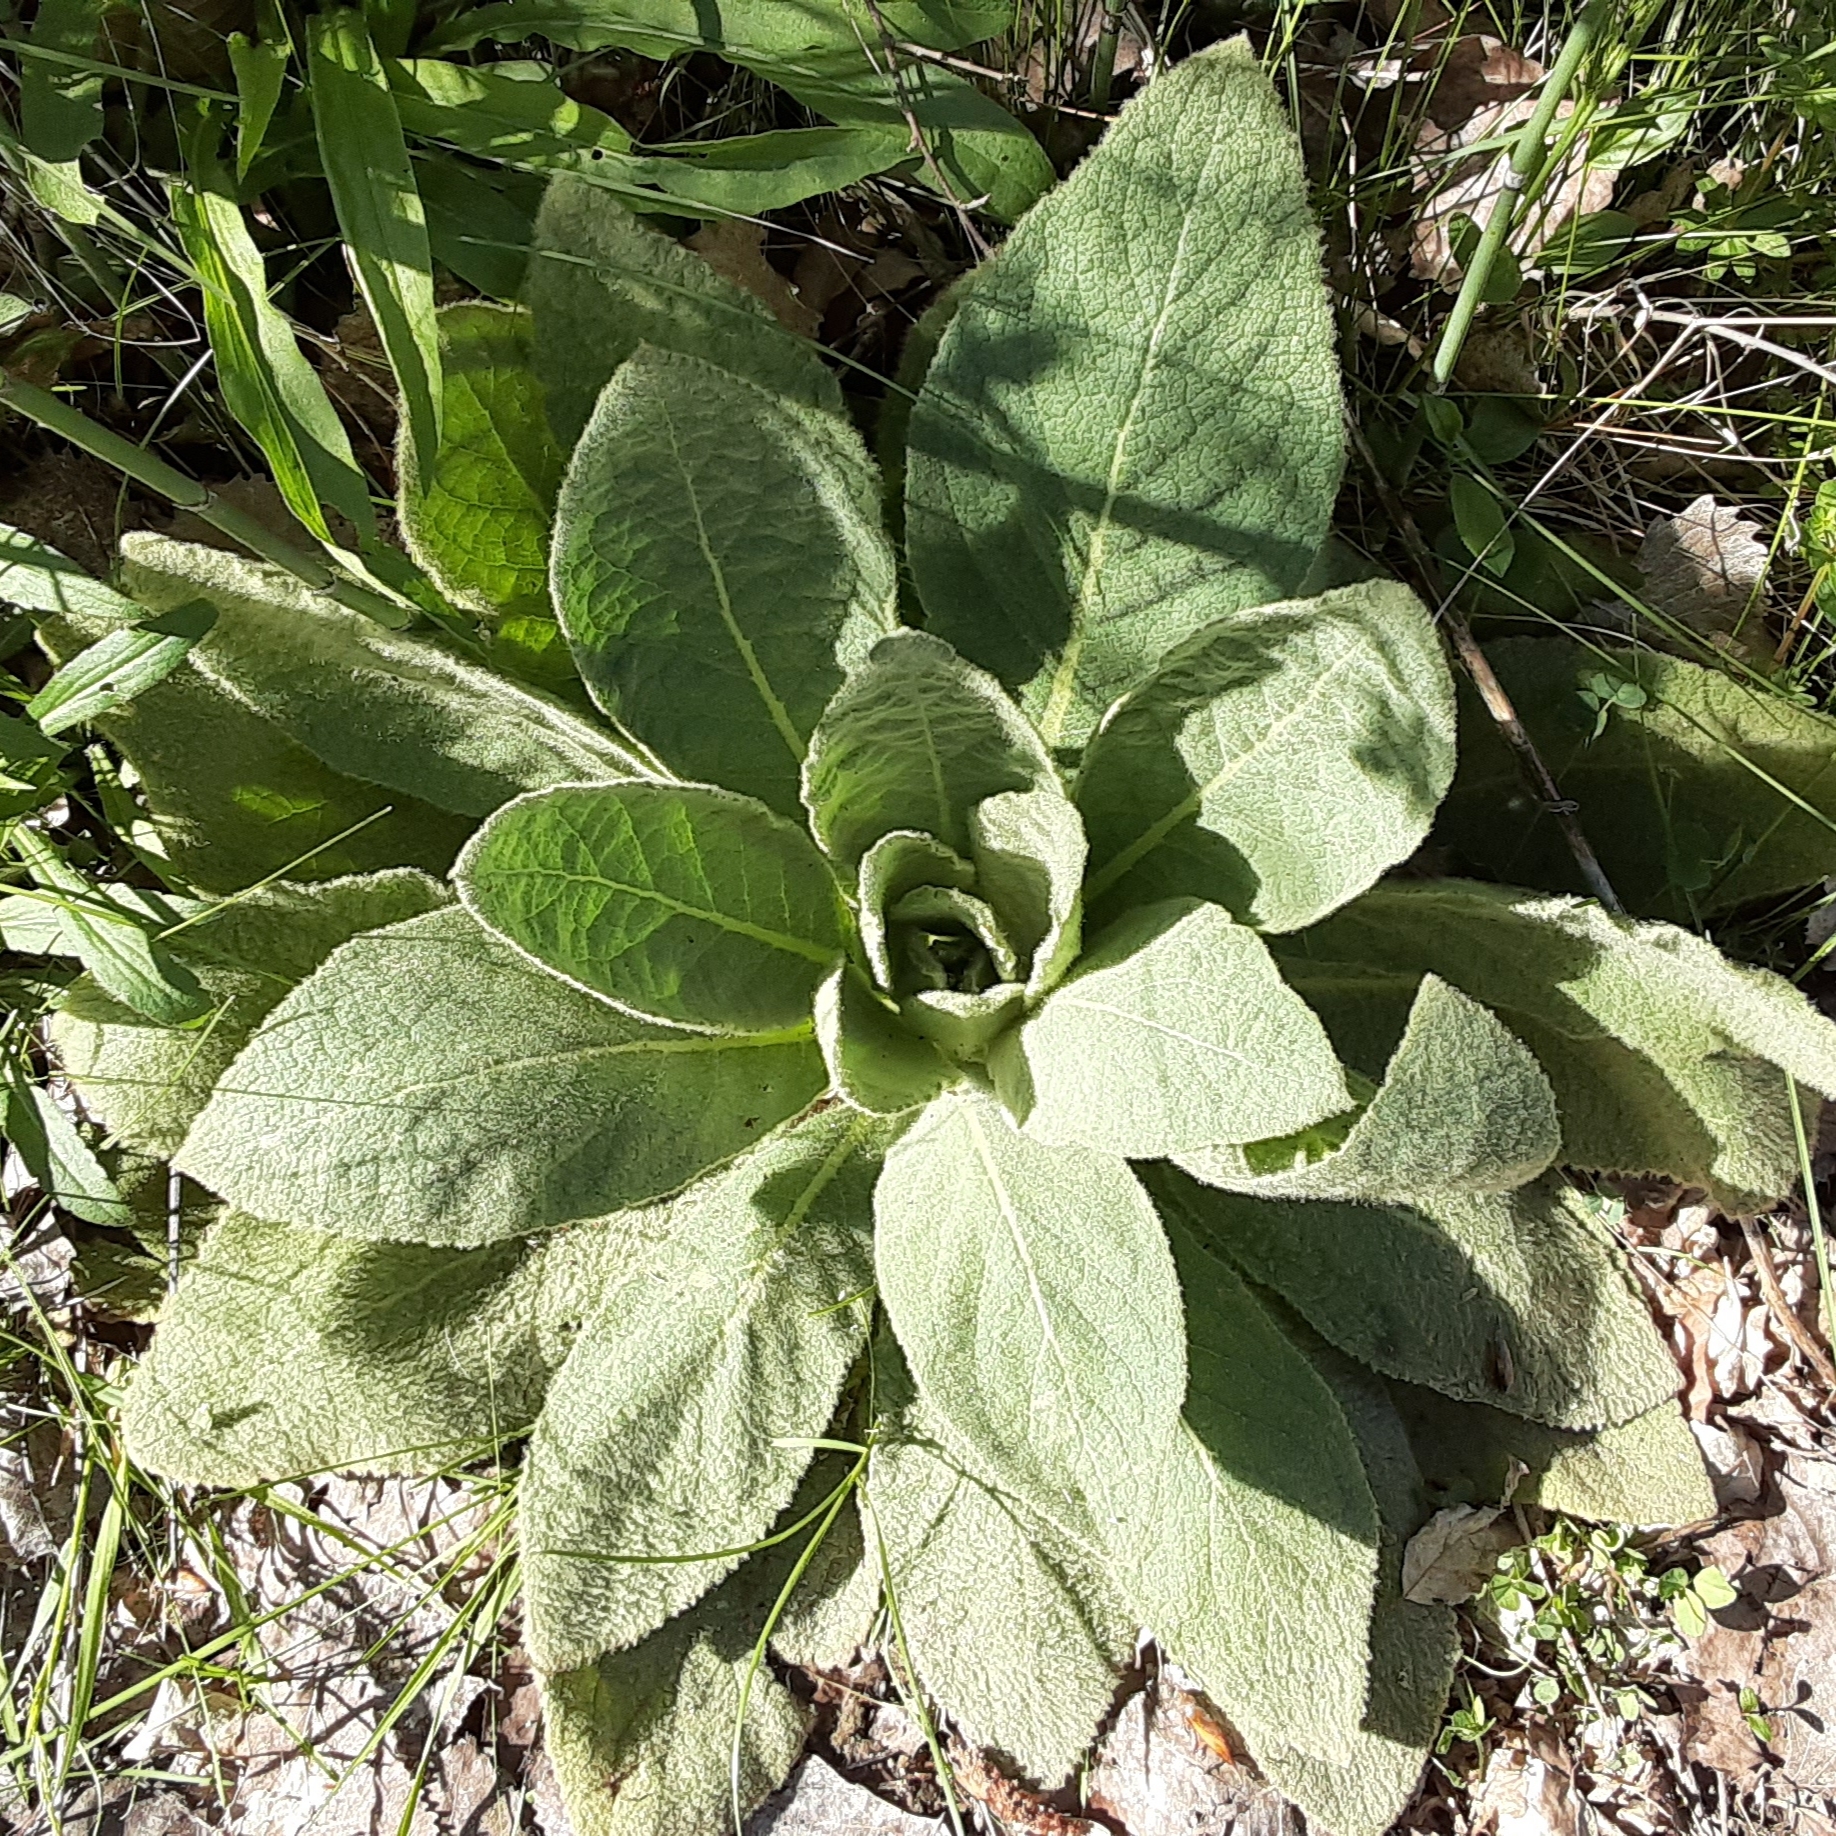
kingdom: Plantae
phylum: Tracheophyta
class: Magnoliopsida
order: Lamiales
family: Scrophulariaceae
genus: Verbascum
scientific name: Verbascum thapsus
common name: Common mullein
